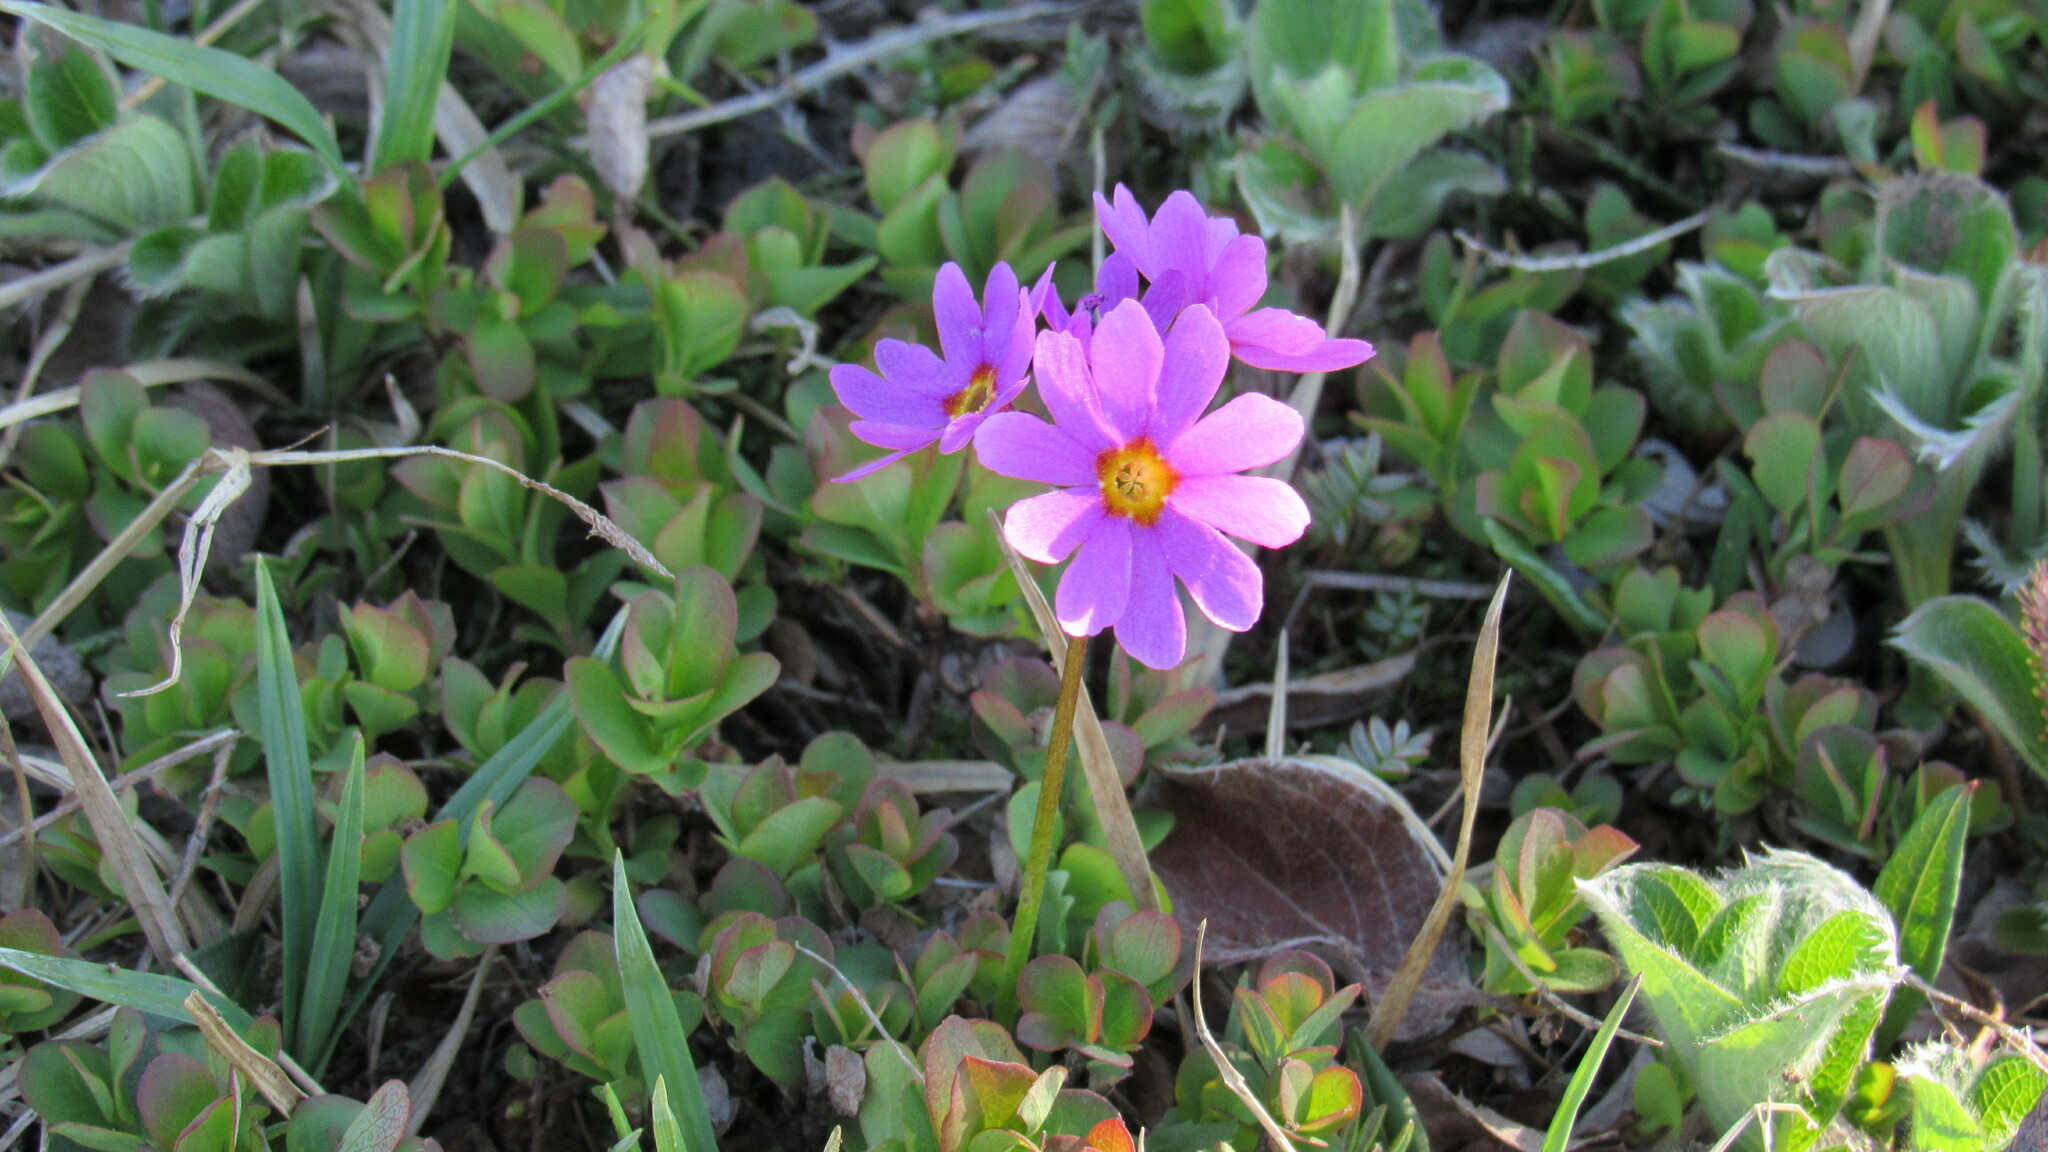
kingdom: Plantae
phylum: Tracheophyta
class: Magnoliopsida
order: Ericales
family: Primulaceae
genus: Primula
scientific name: Primula cuneifolia
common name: Wedge-leaved primrose
